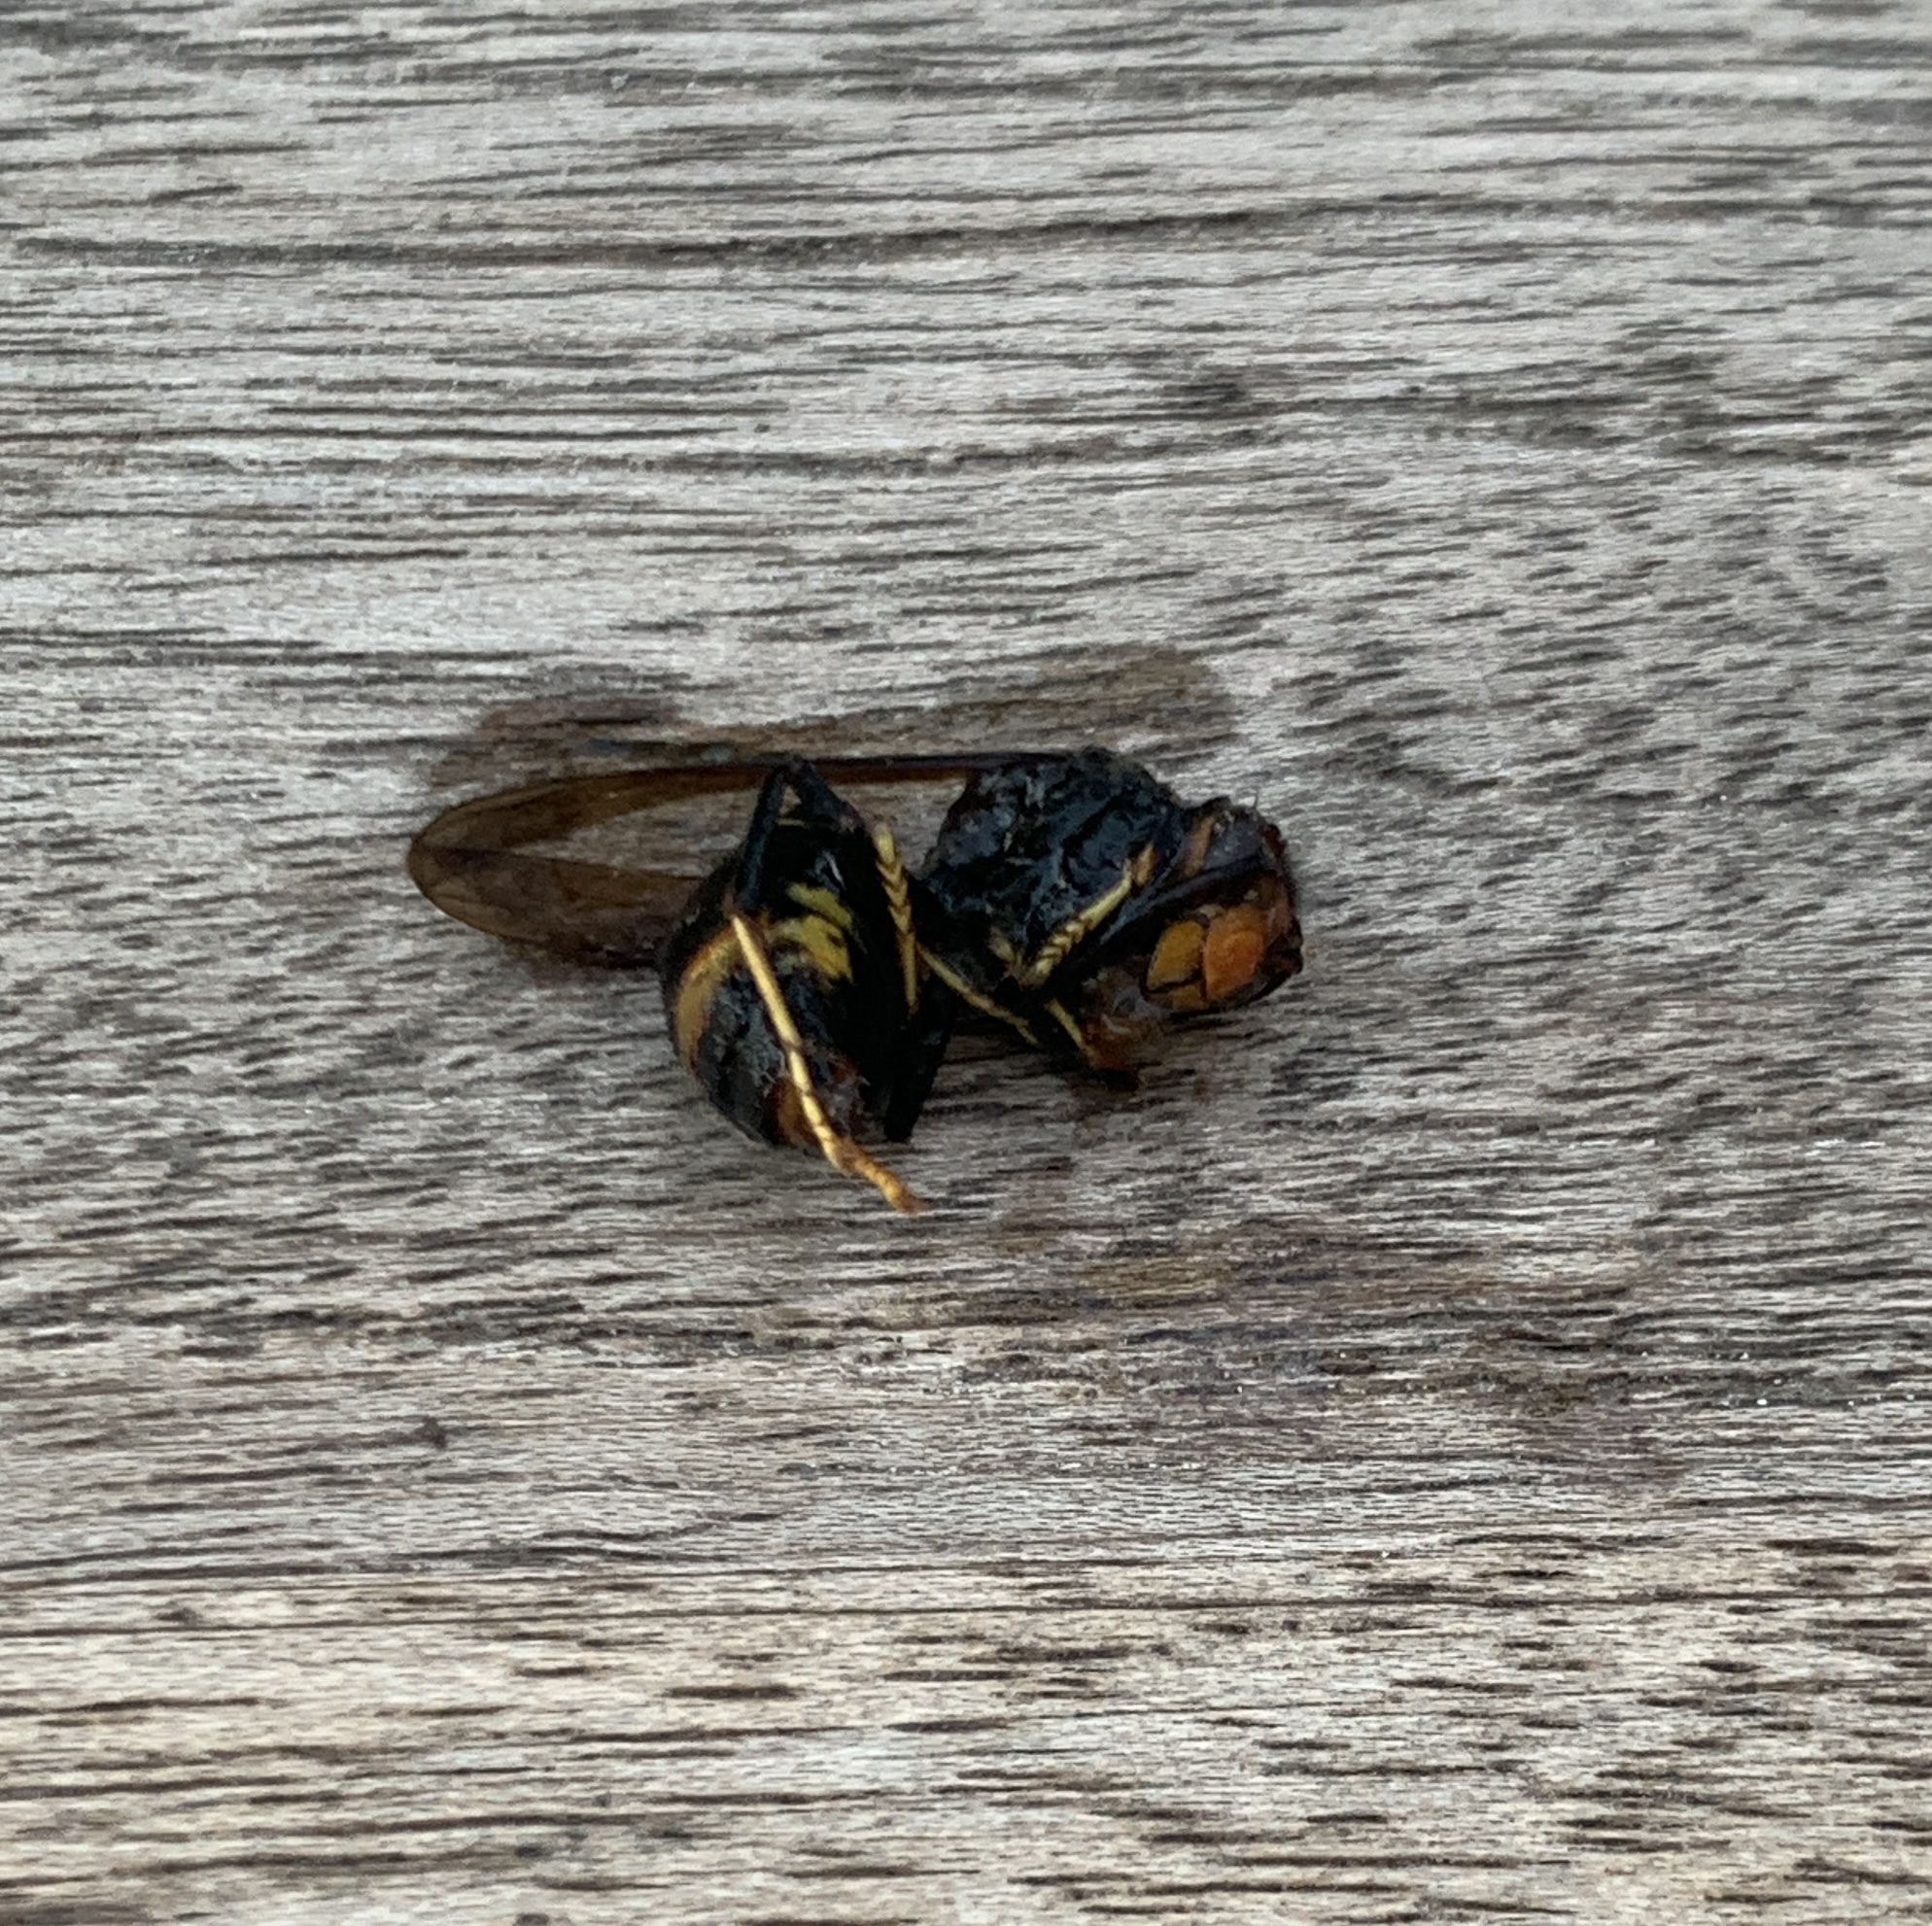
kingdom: Animalia
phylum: Arthropoda
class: Insecta
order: Hymenoptera
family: Vespidae
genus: Vespa
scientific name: Vespa velutina
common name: Asian hornet
